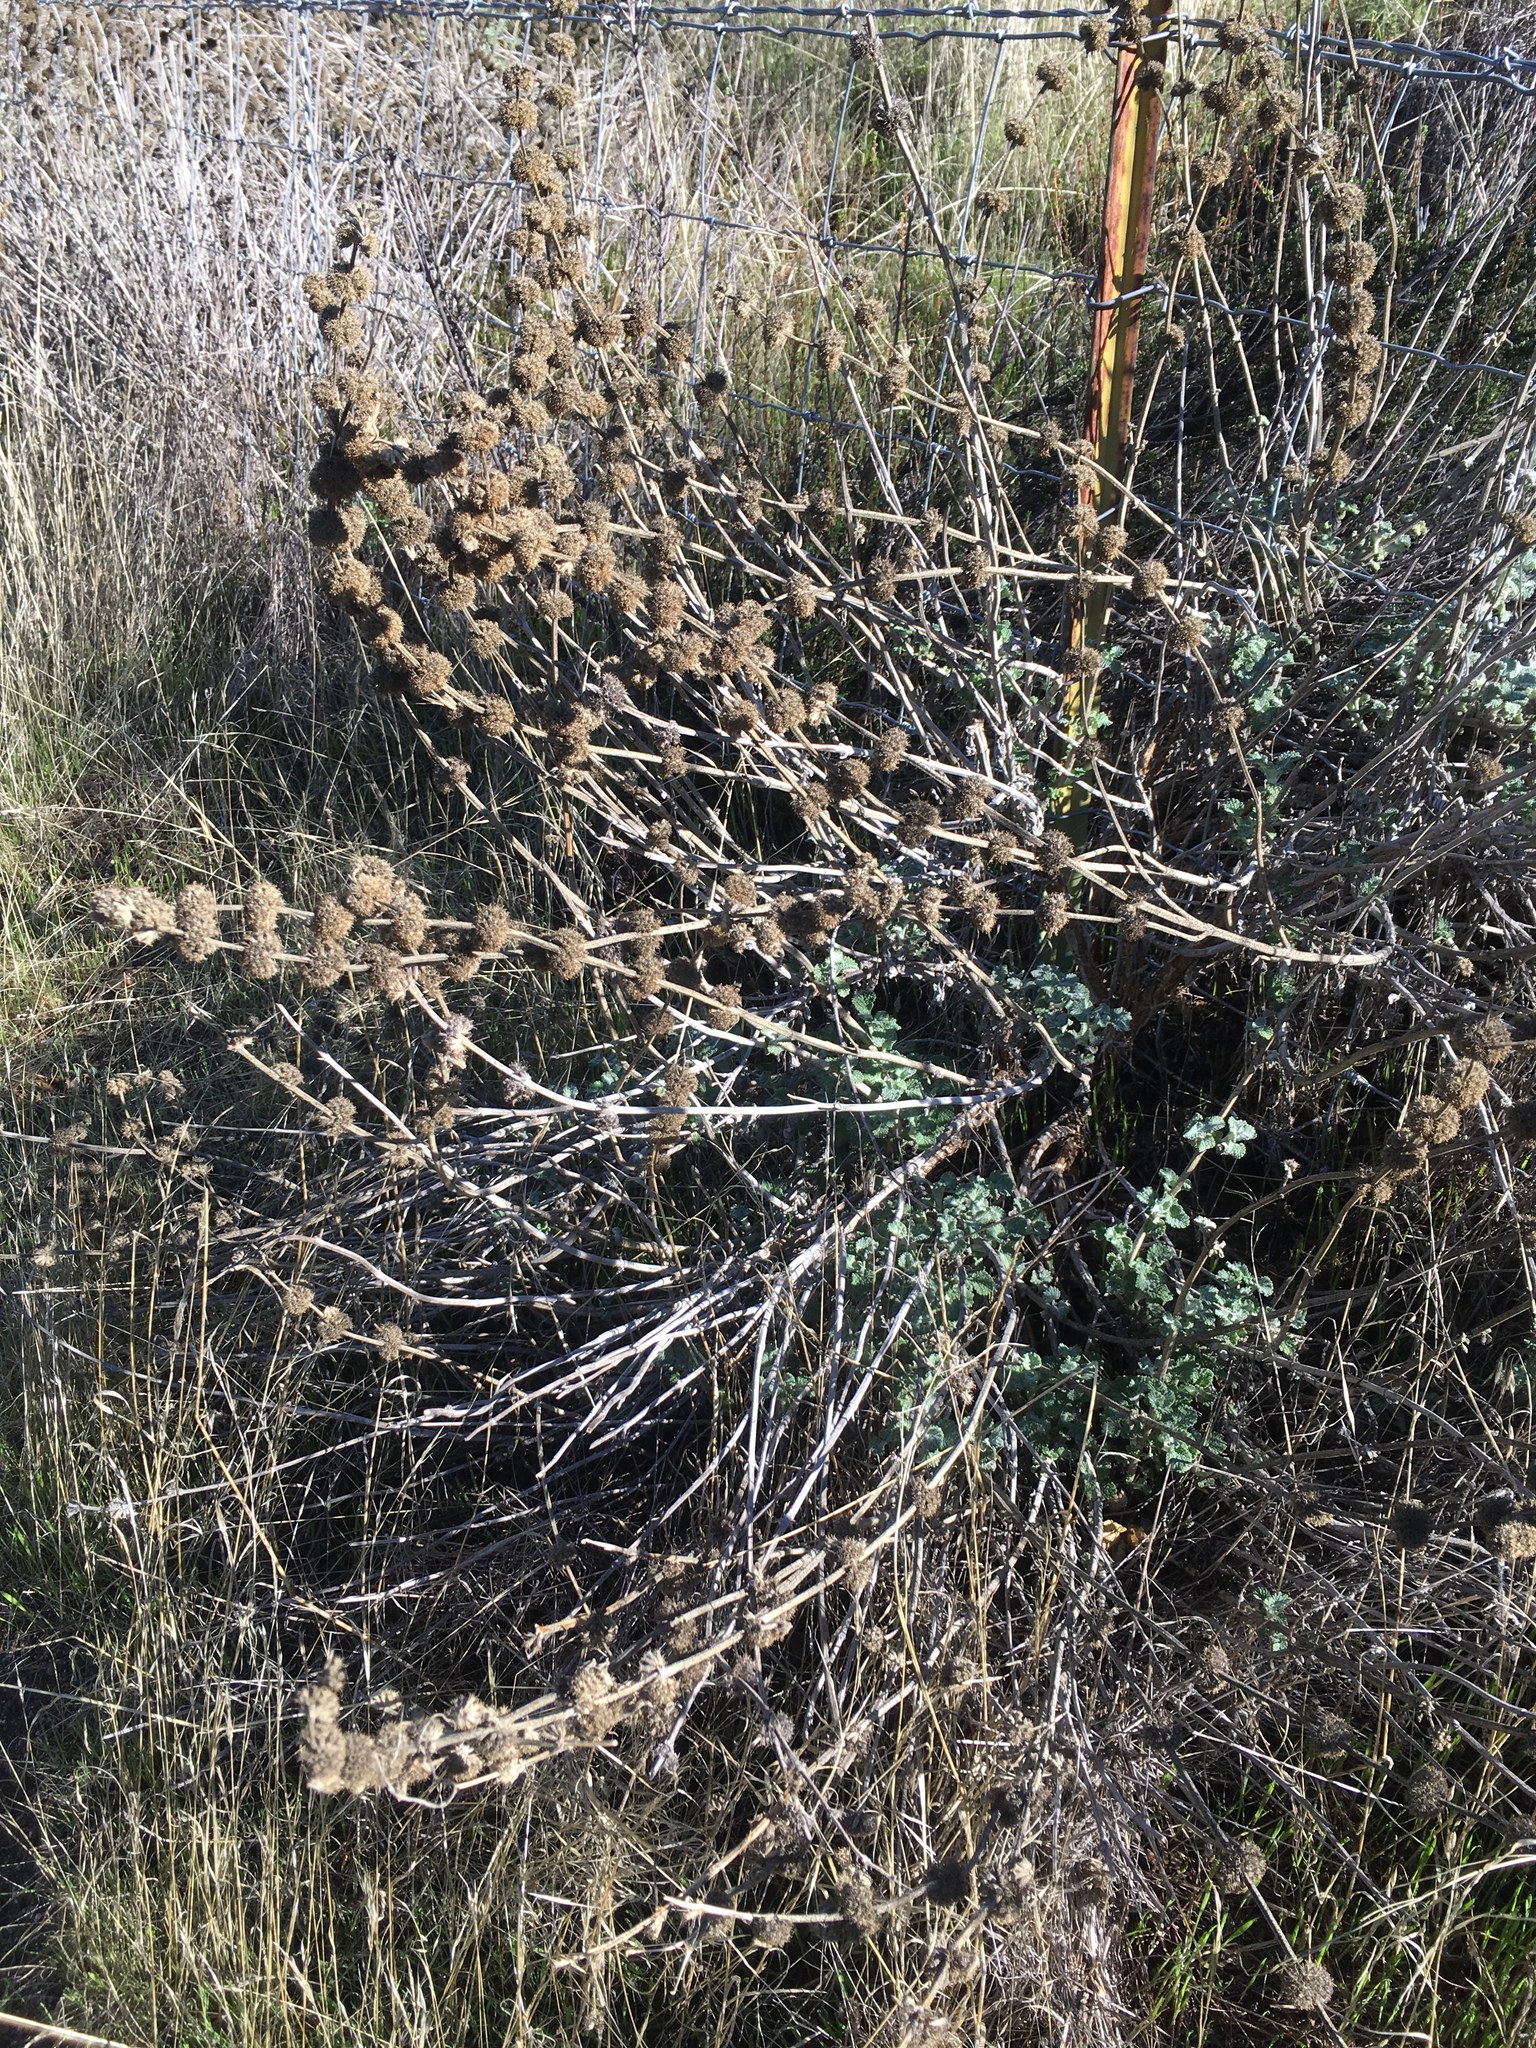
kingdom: Plantae
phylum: Tracheophyta
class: Magnoliopsida
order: Lamiales
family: Lamiaceae
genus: Marrubium
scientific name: Marrubium vulgare
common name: Horehound
